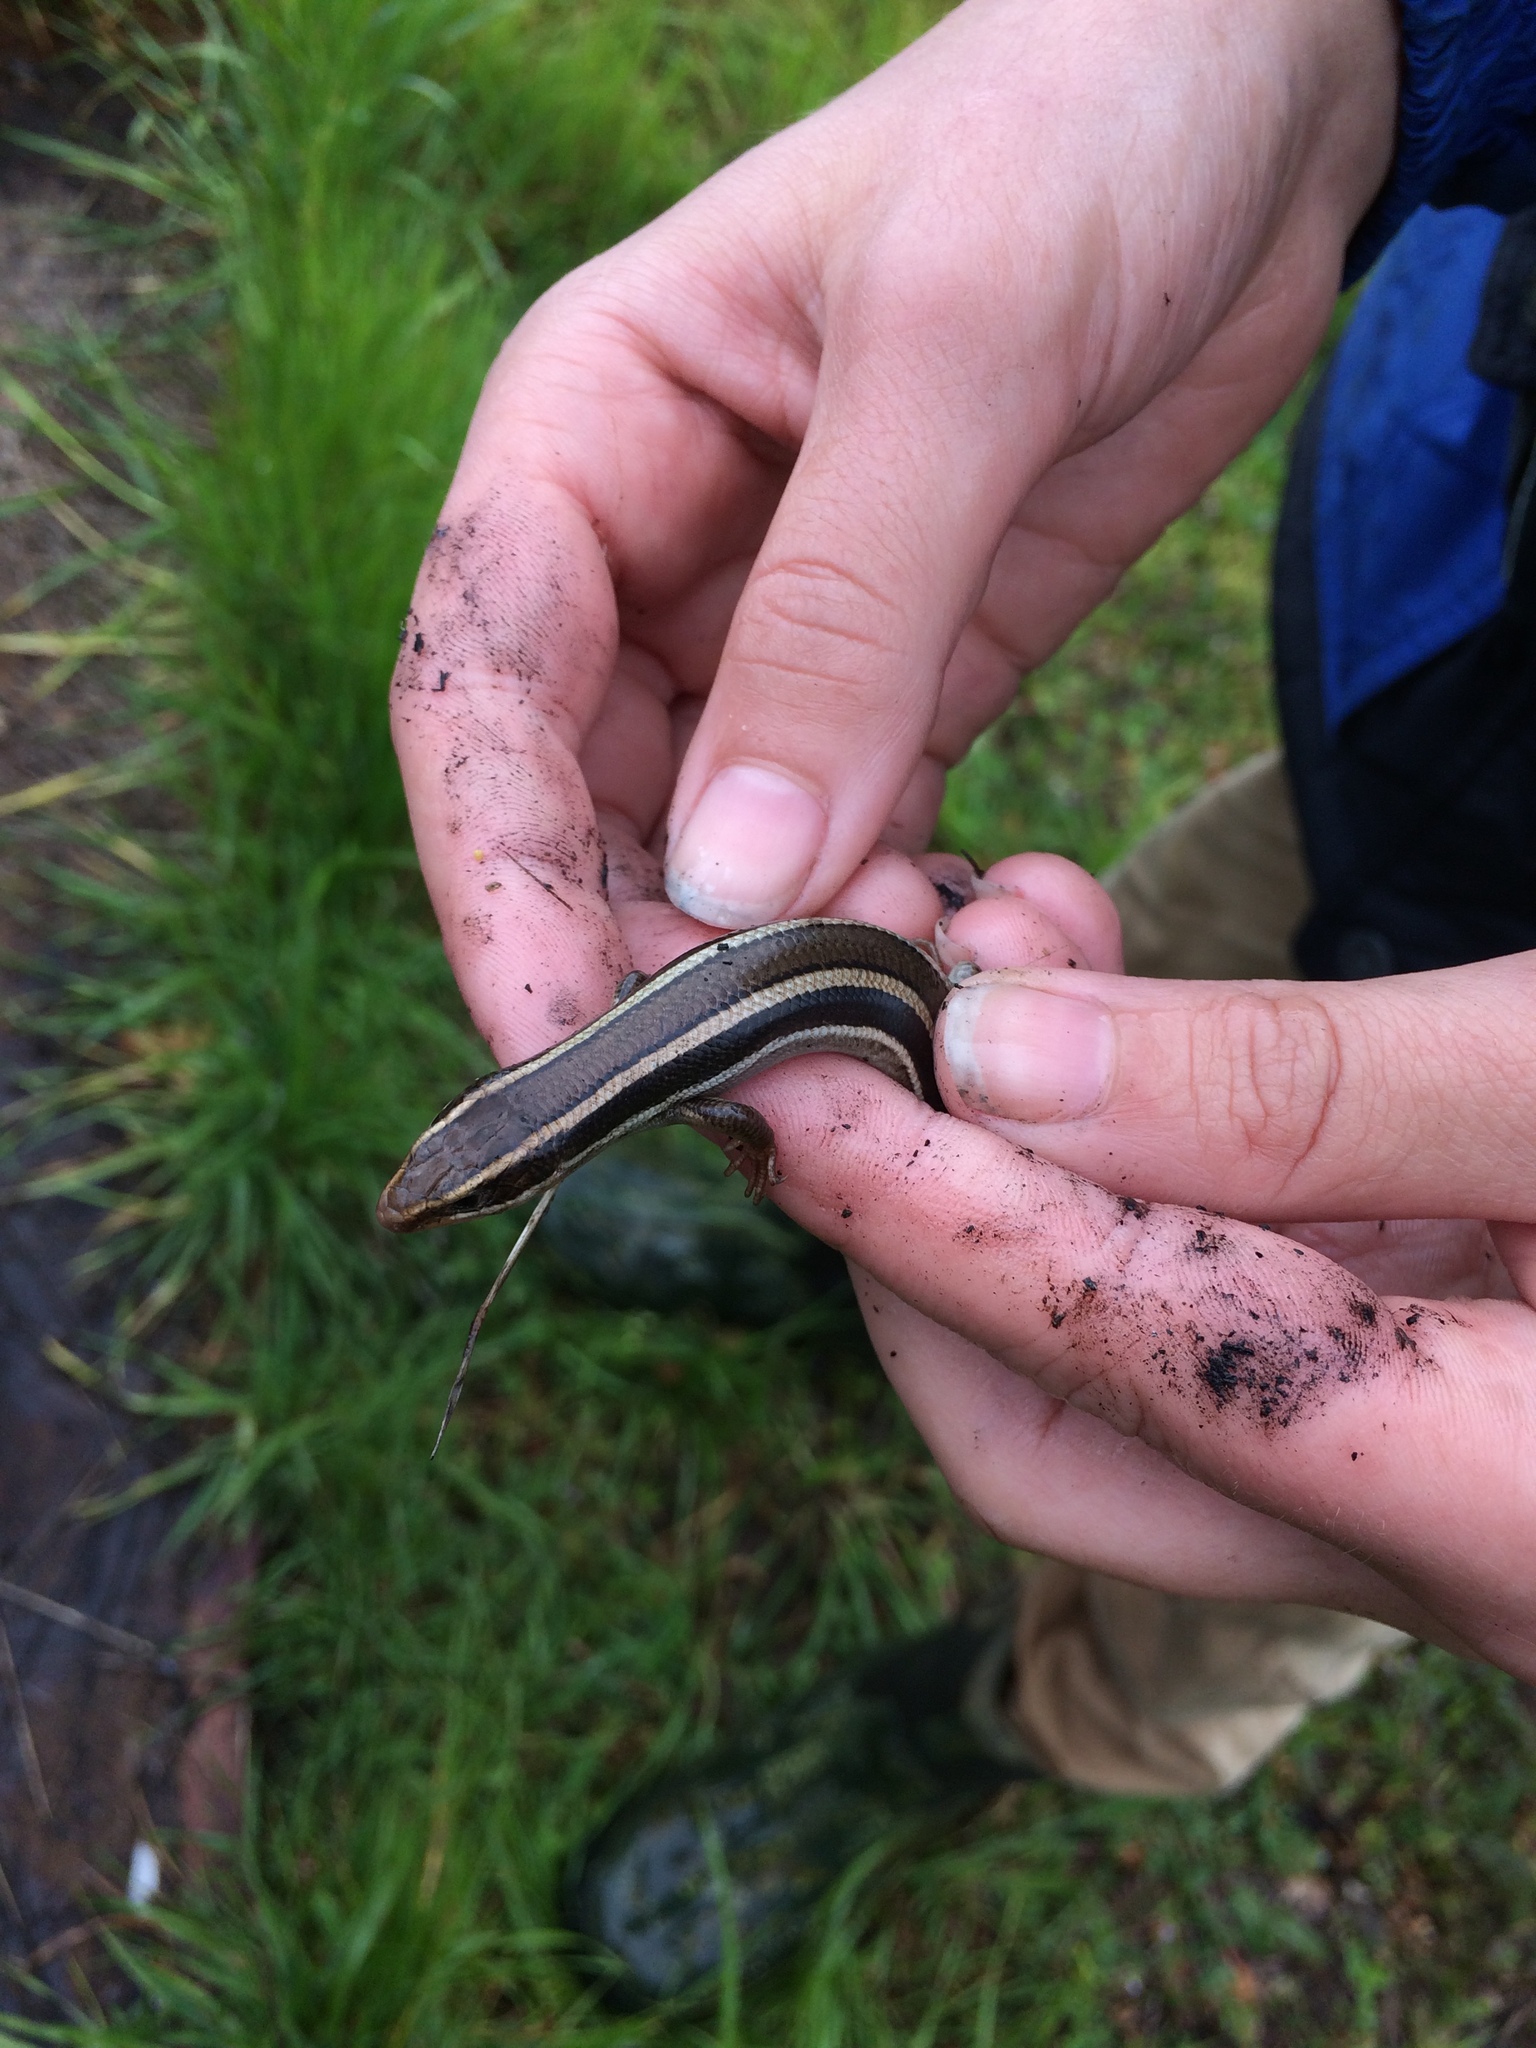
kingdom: Animalia
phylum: Chordata
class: Squamata
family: Scincidae
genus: Plestiodon
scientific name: Plestiodon skiltonianus
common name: Coronado island skink [interparietalis]
